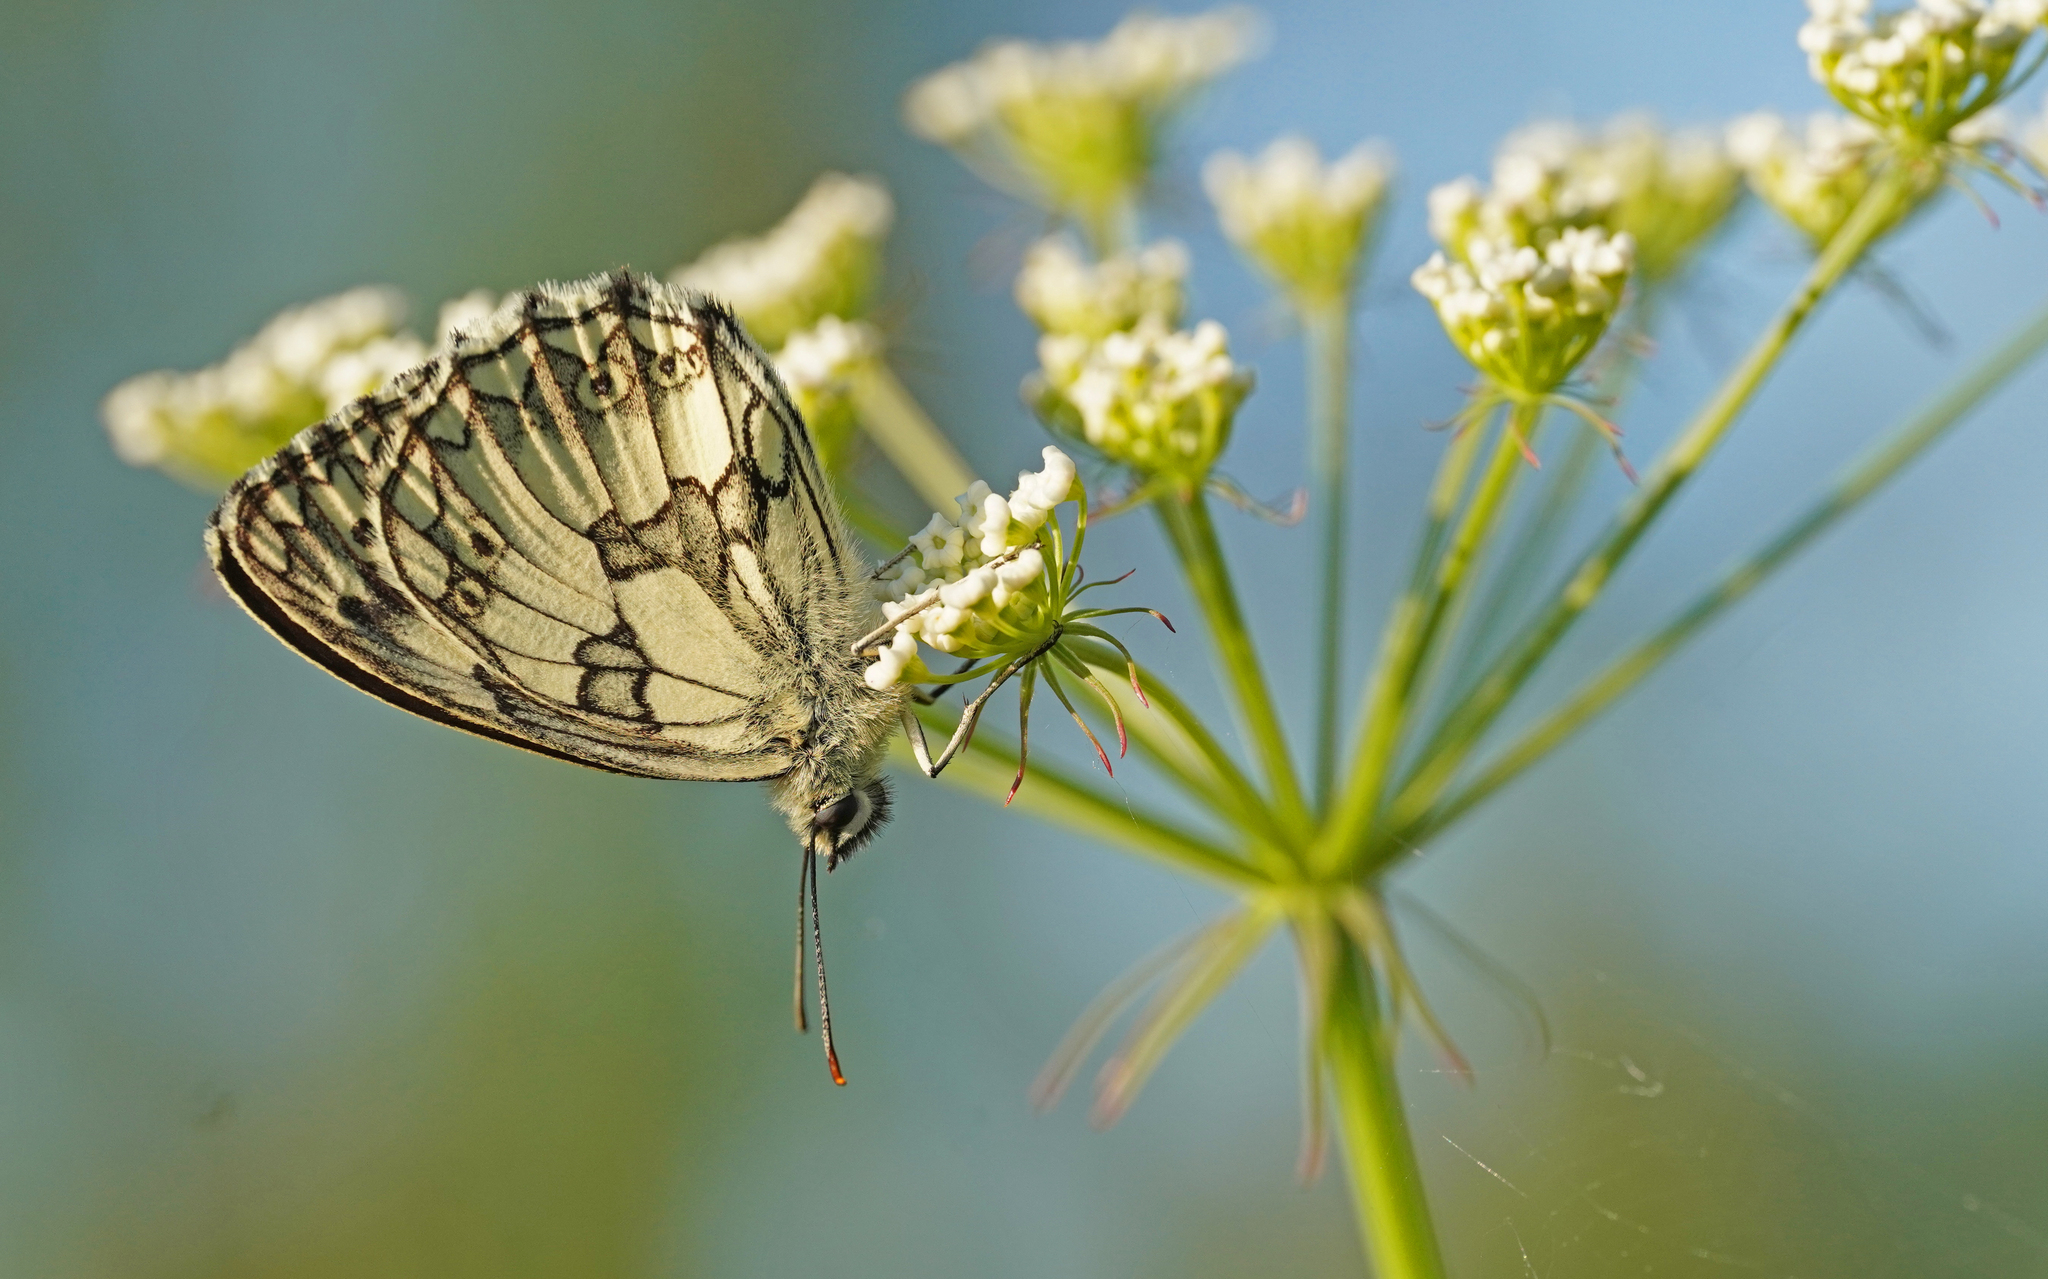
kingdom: Animalia
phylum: Arthropoda
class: Insecta
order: Lepidoptera
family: Nymphalidae
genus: Melanargia
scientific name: Melanargia galathea
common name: Marbled white
